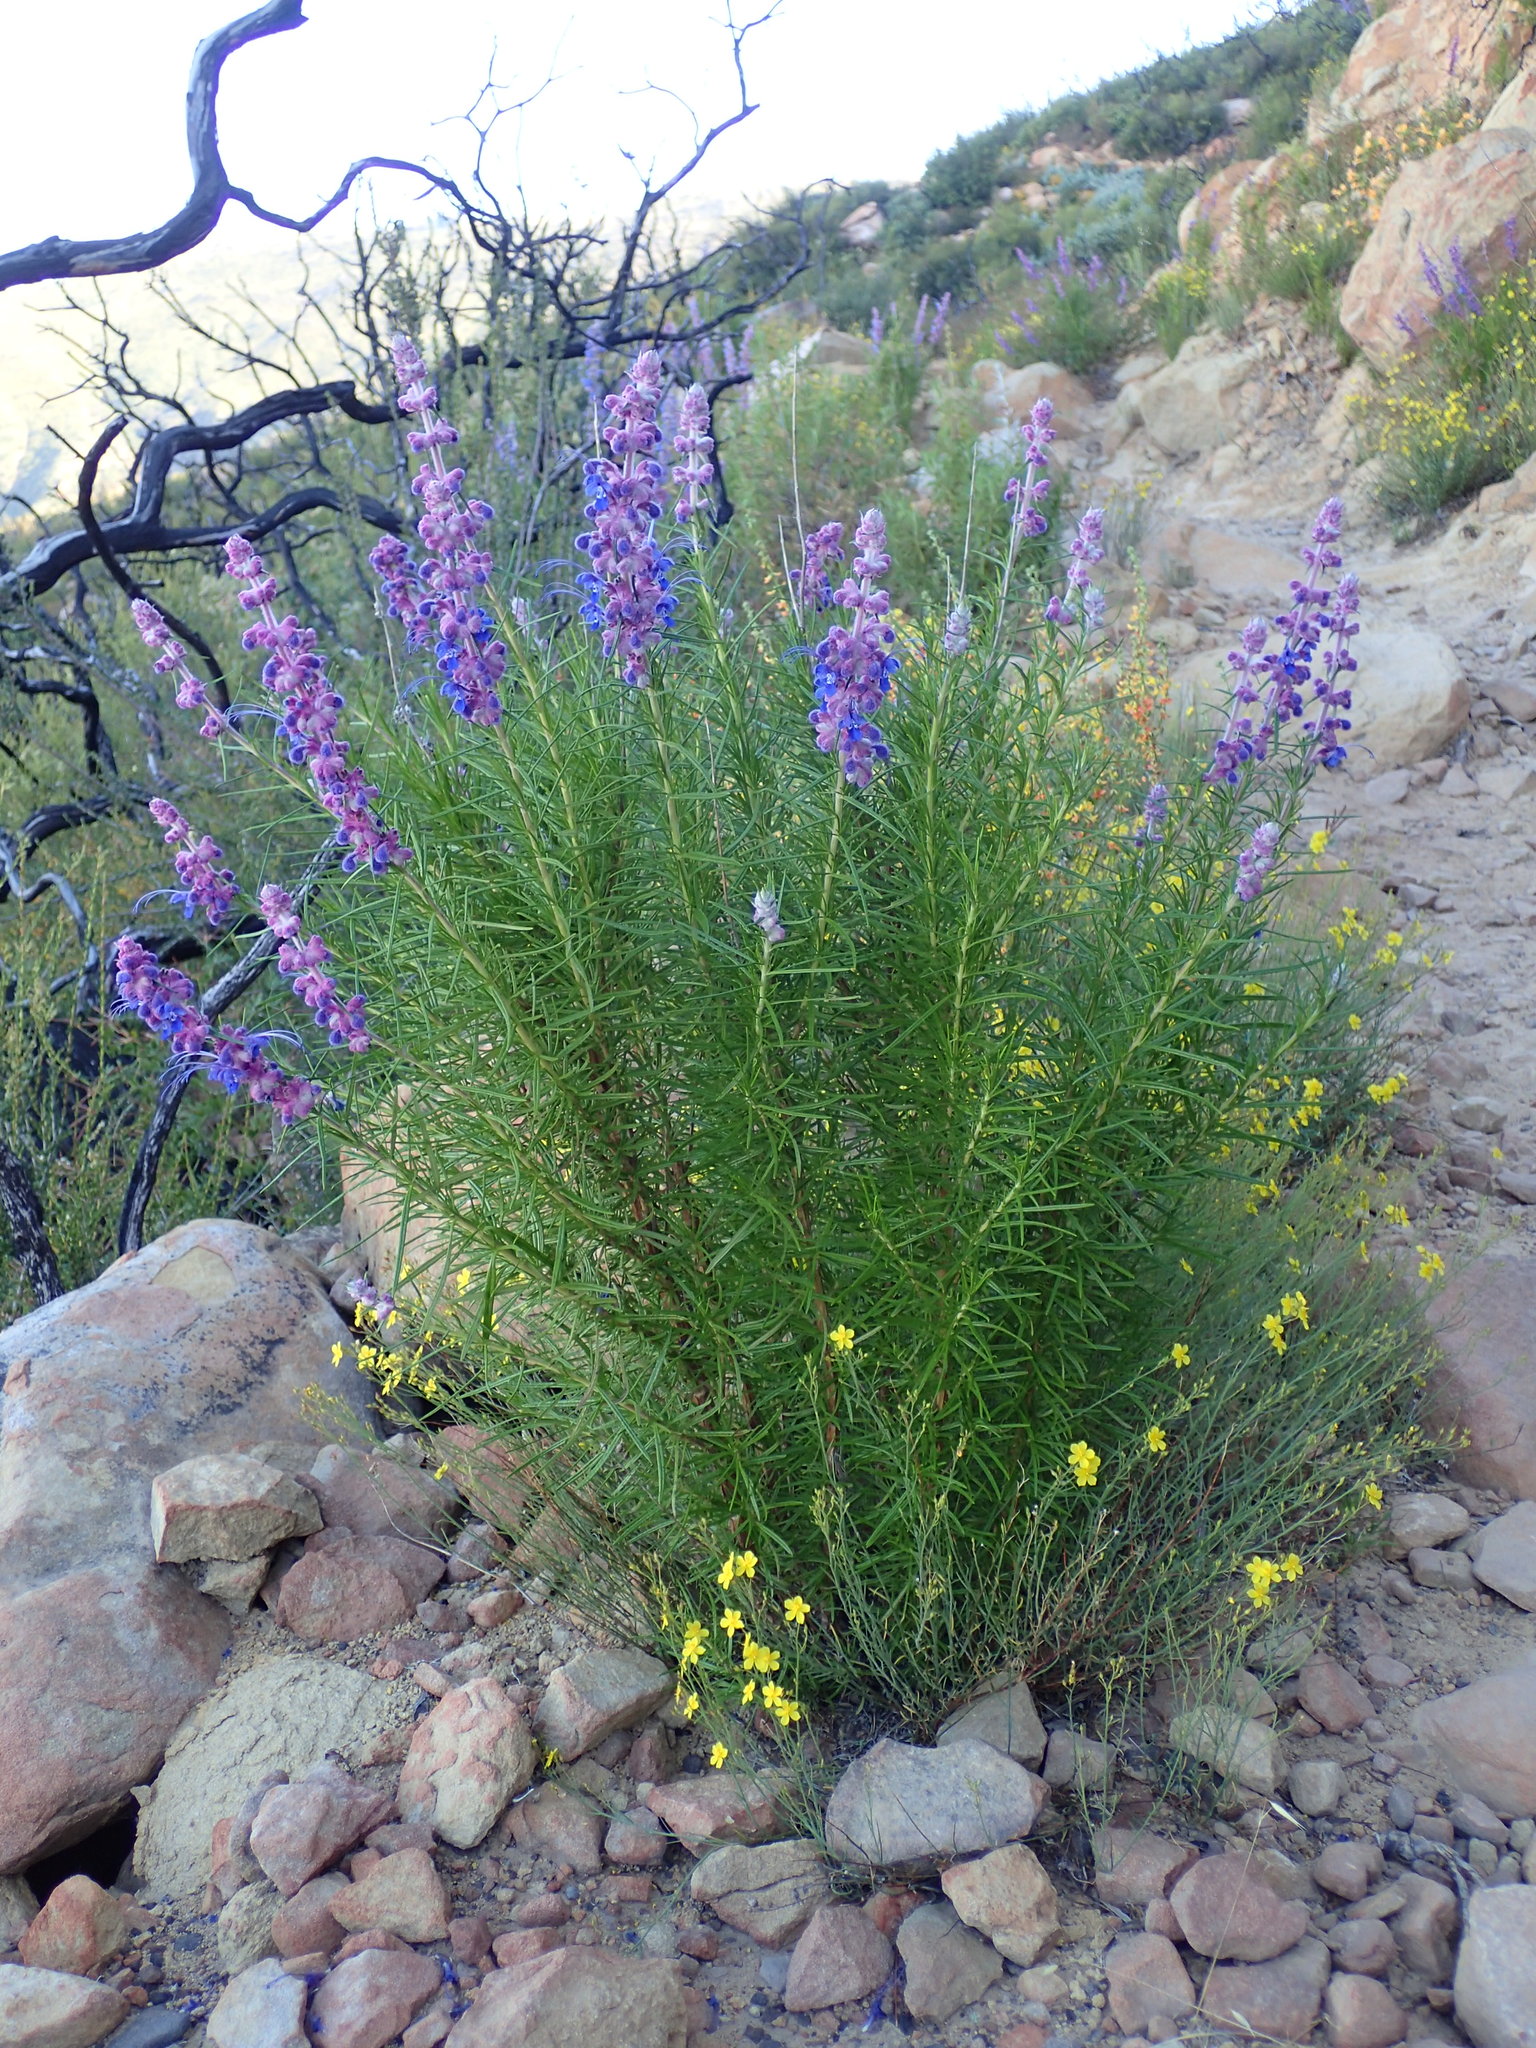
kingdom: Plantae
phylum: Tracheophyta
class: Magnoliopsida
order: Lamiales
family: Lamiaceae
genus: Trichostema
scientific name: Trichostema lanatum
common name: Woolly bluecurls
